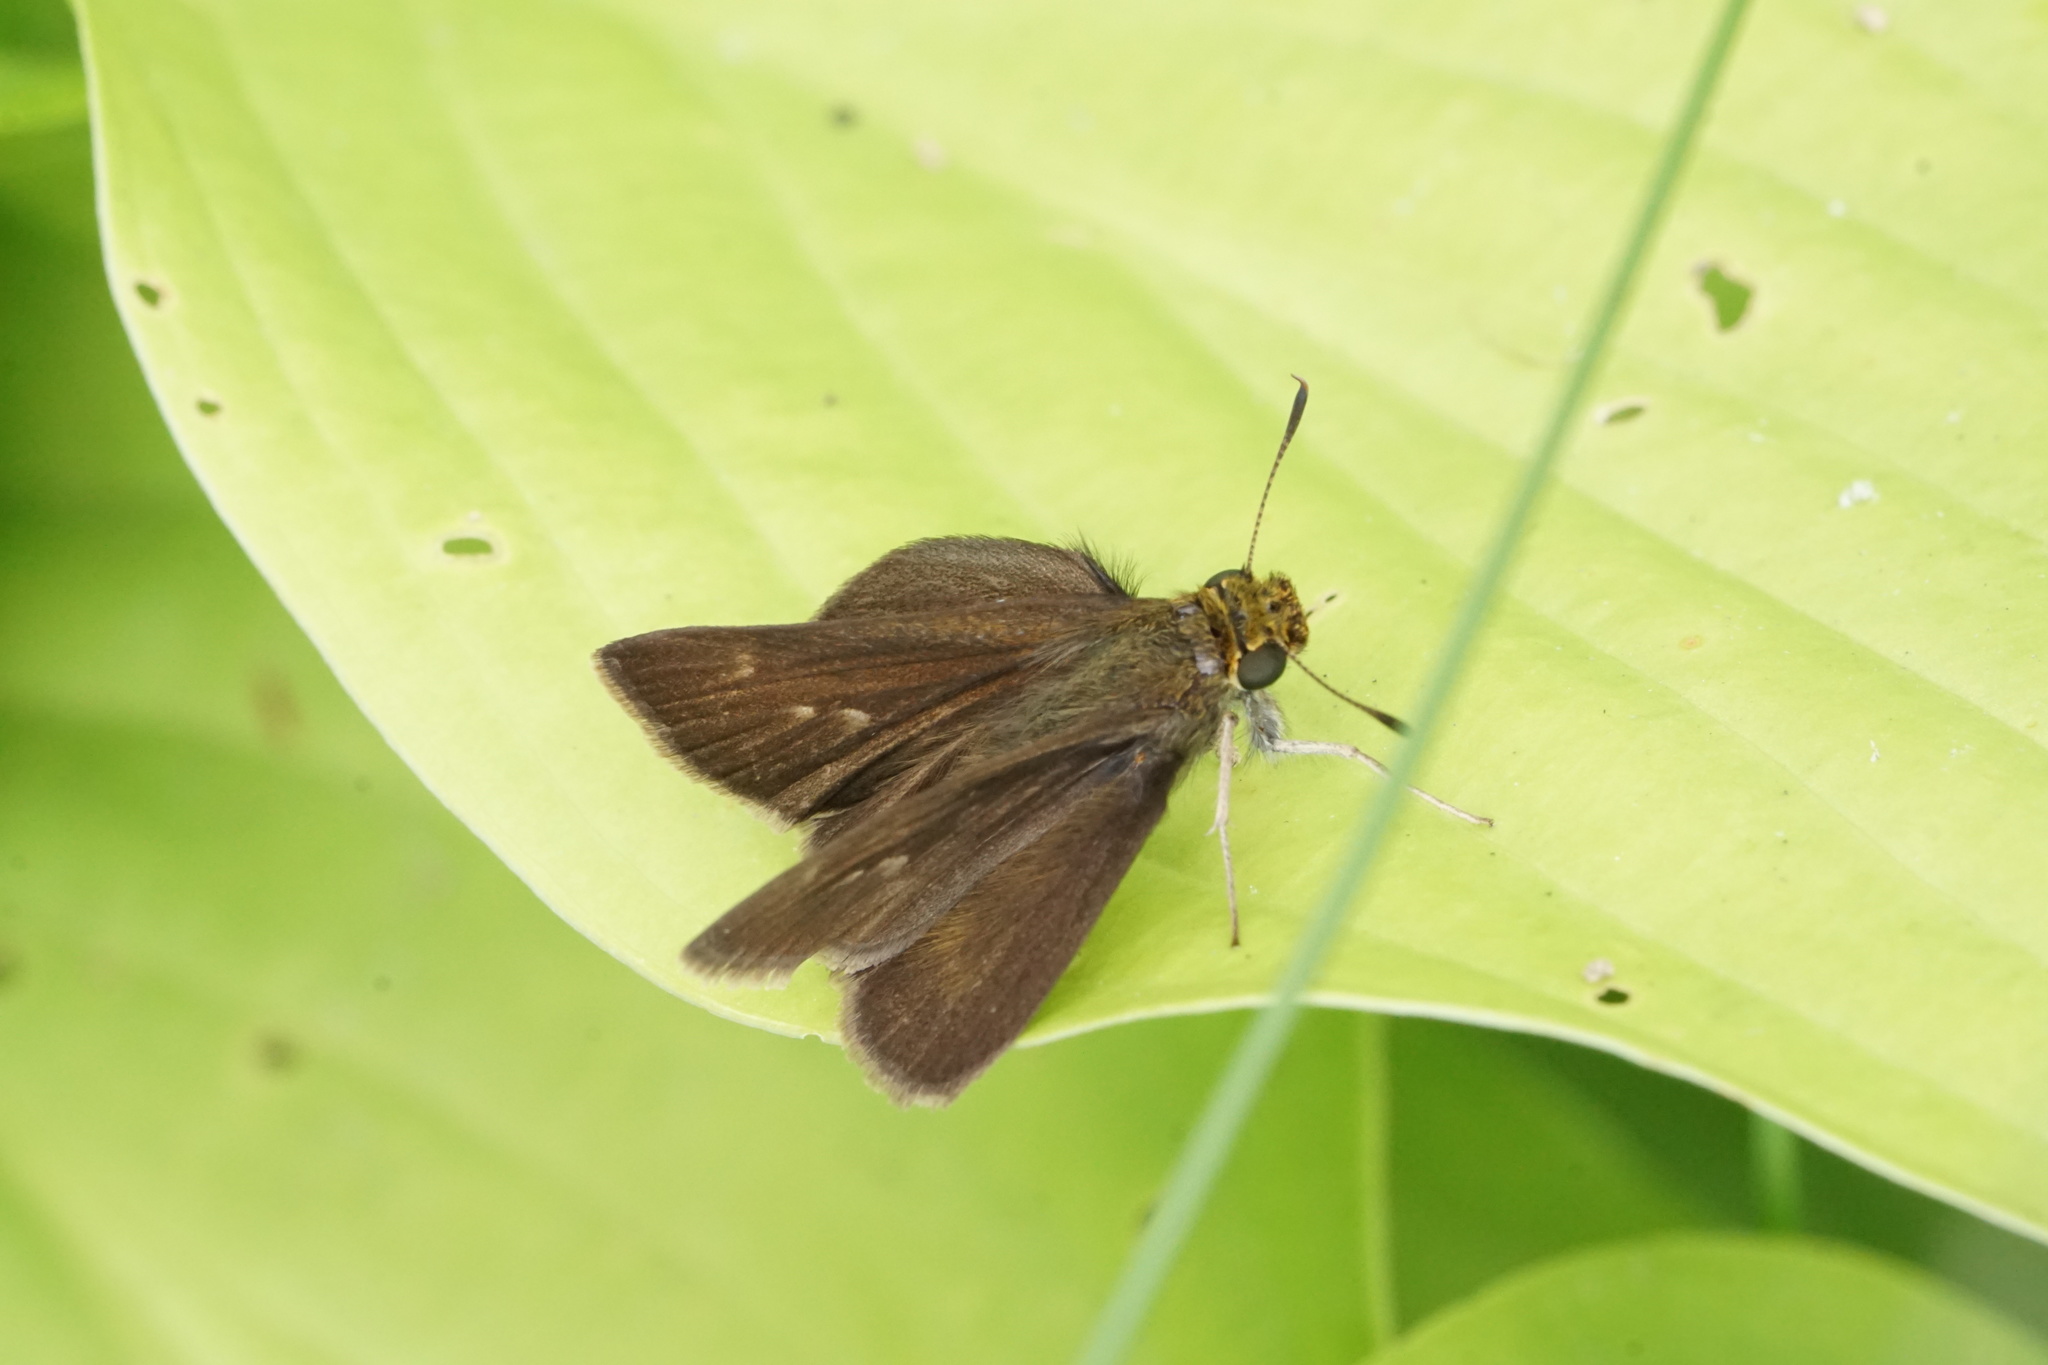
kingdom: Animalia
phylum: Arthropoda
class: Insecta
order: Lepidoptera
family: Hesperiidae
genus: Euphyes
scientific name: Euphyes vestris
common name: Dun skipper
